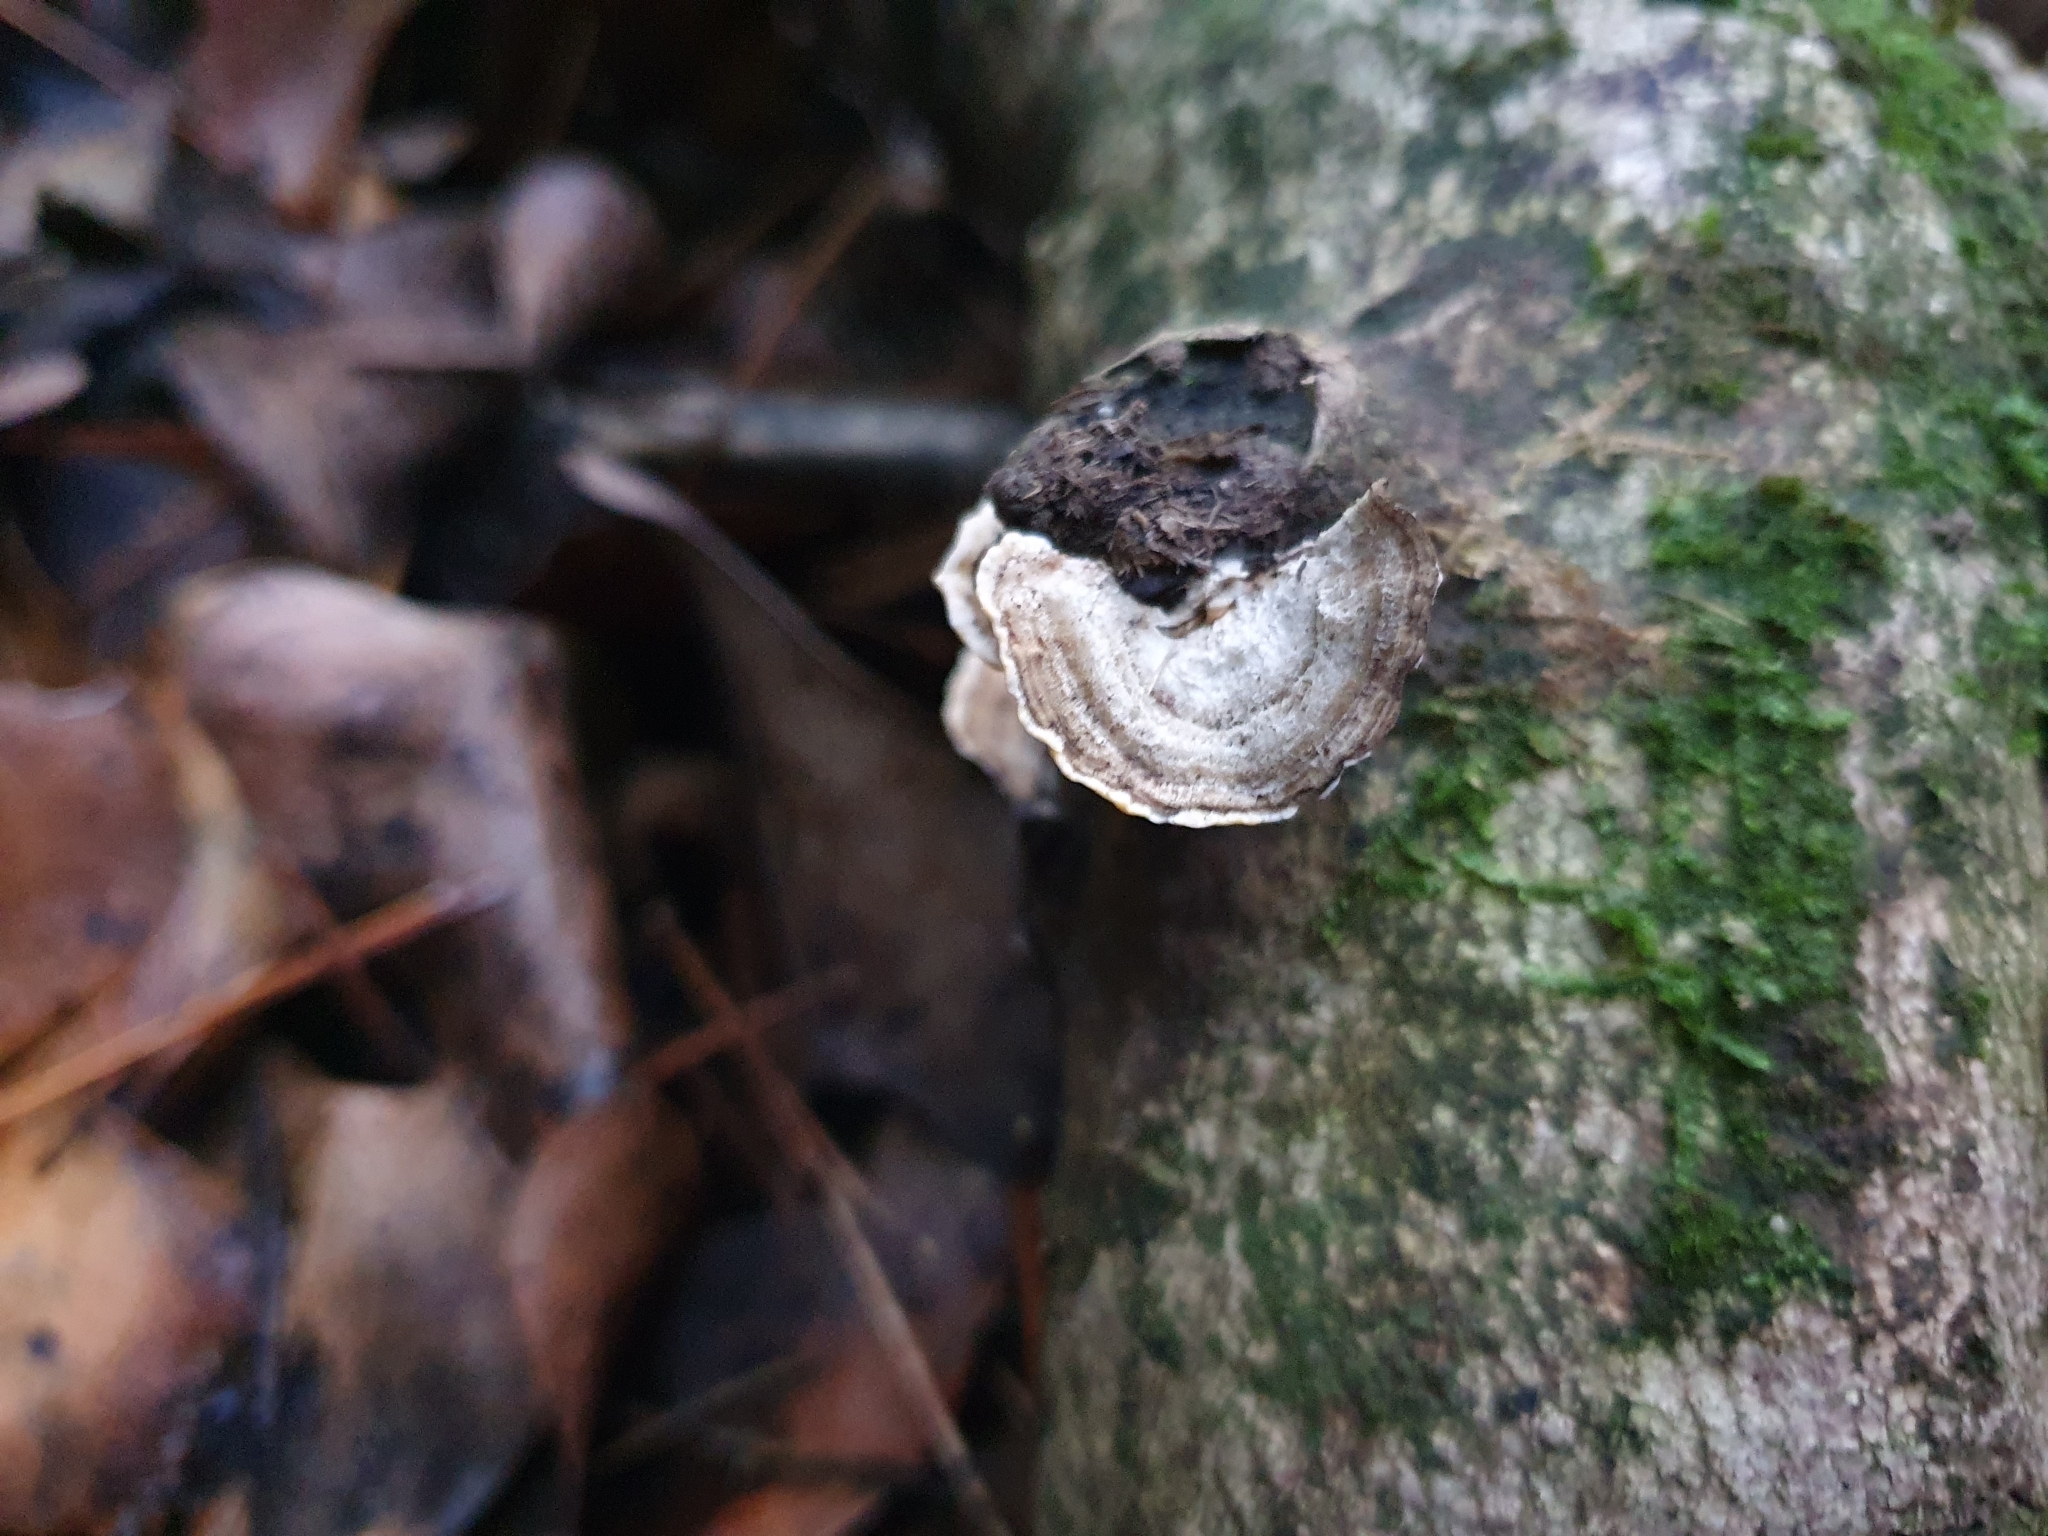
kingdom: Fungi
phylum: Basidiomycota
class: Agaricomycetes
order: Polyporales
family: Polyporaceae
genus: Trametes
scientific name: Trametes hirsuta
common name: Hairy bracket
